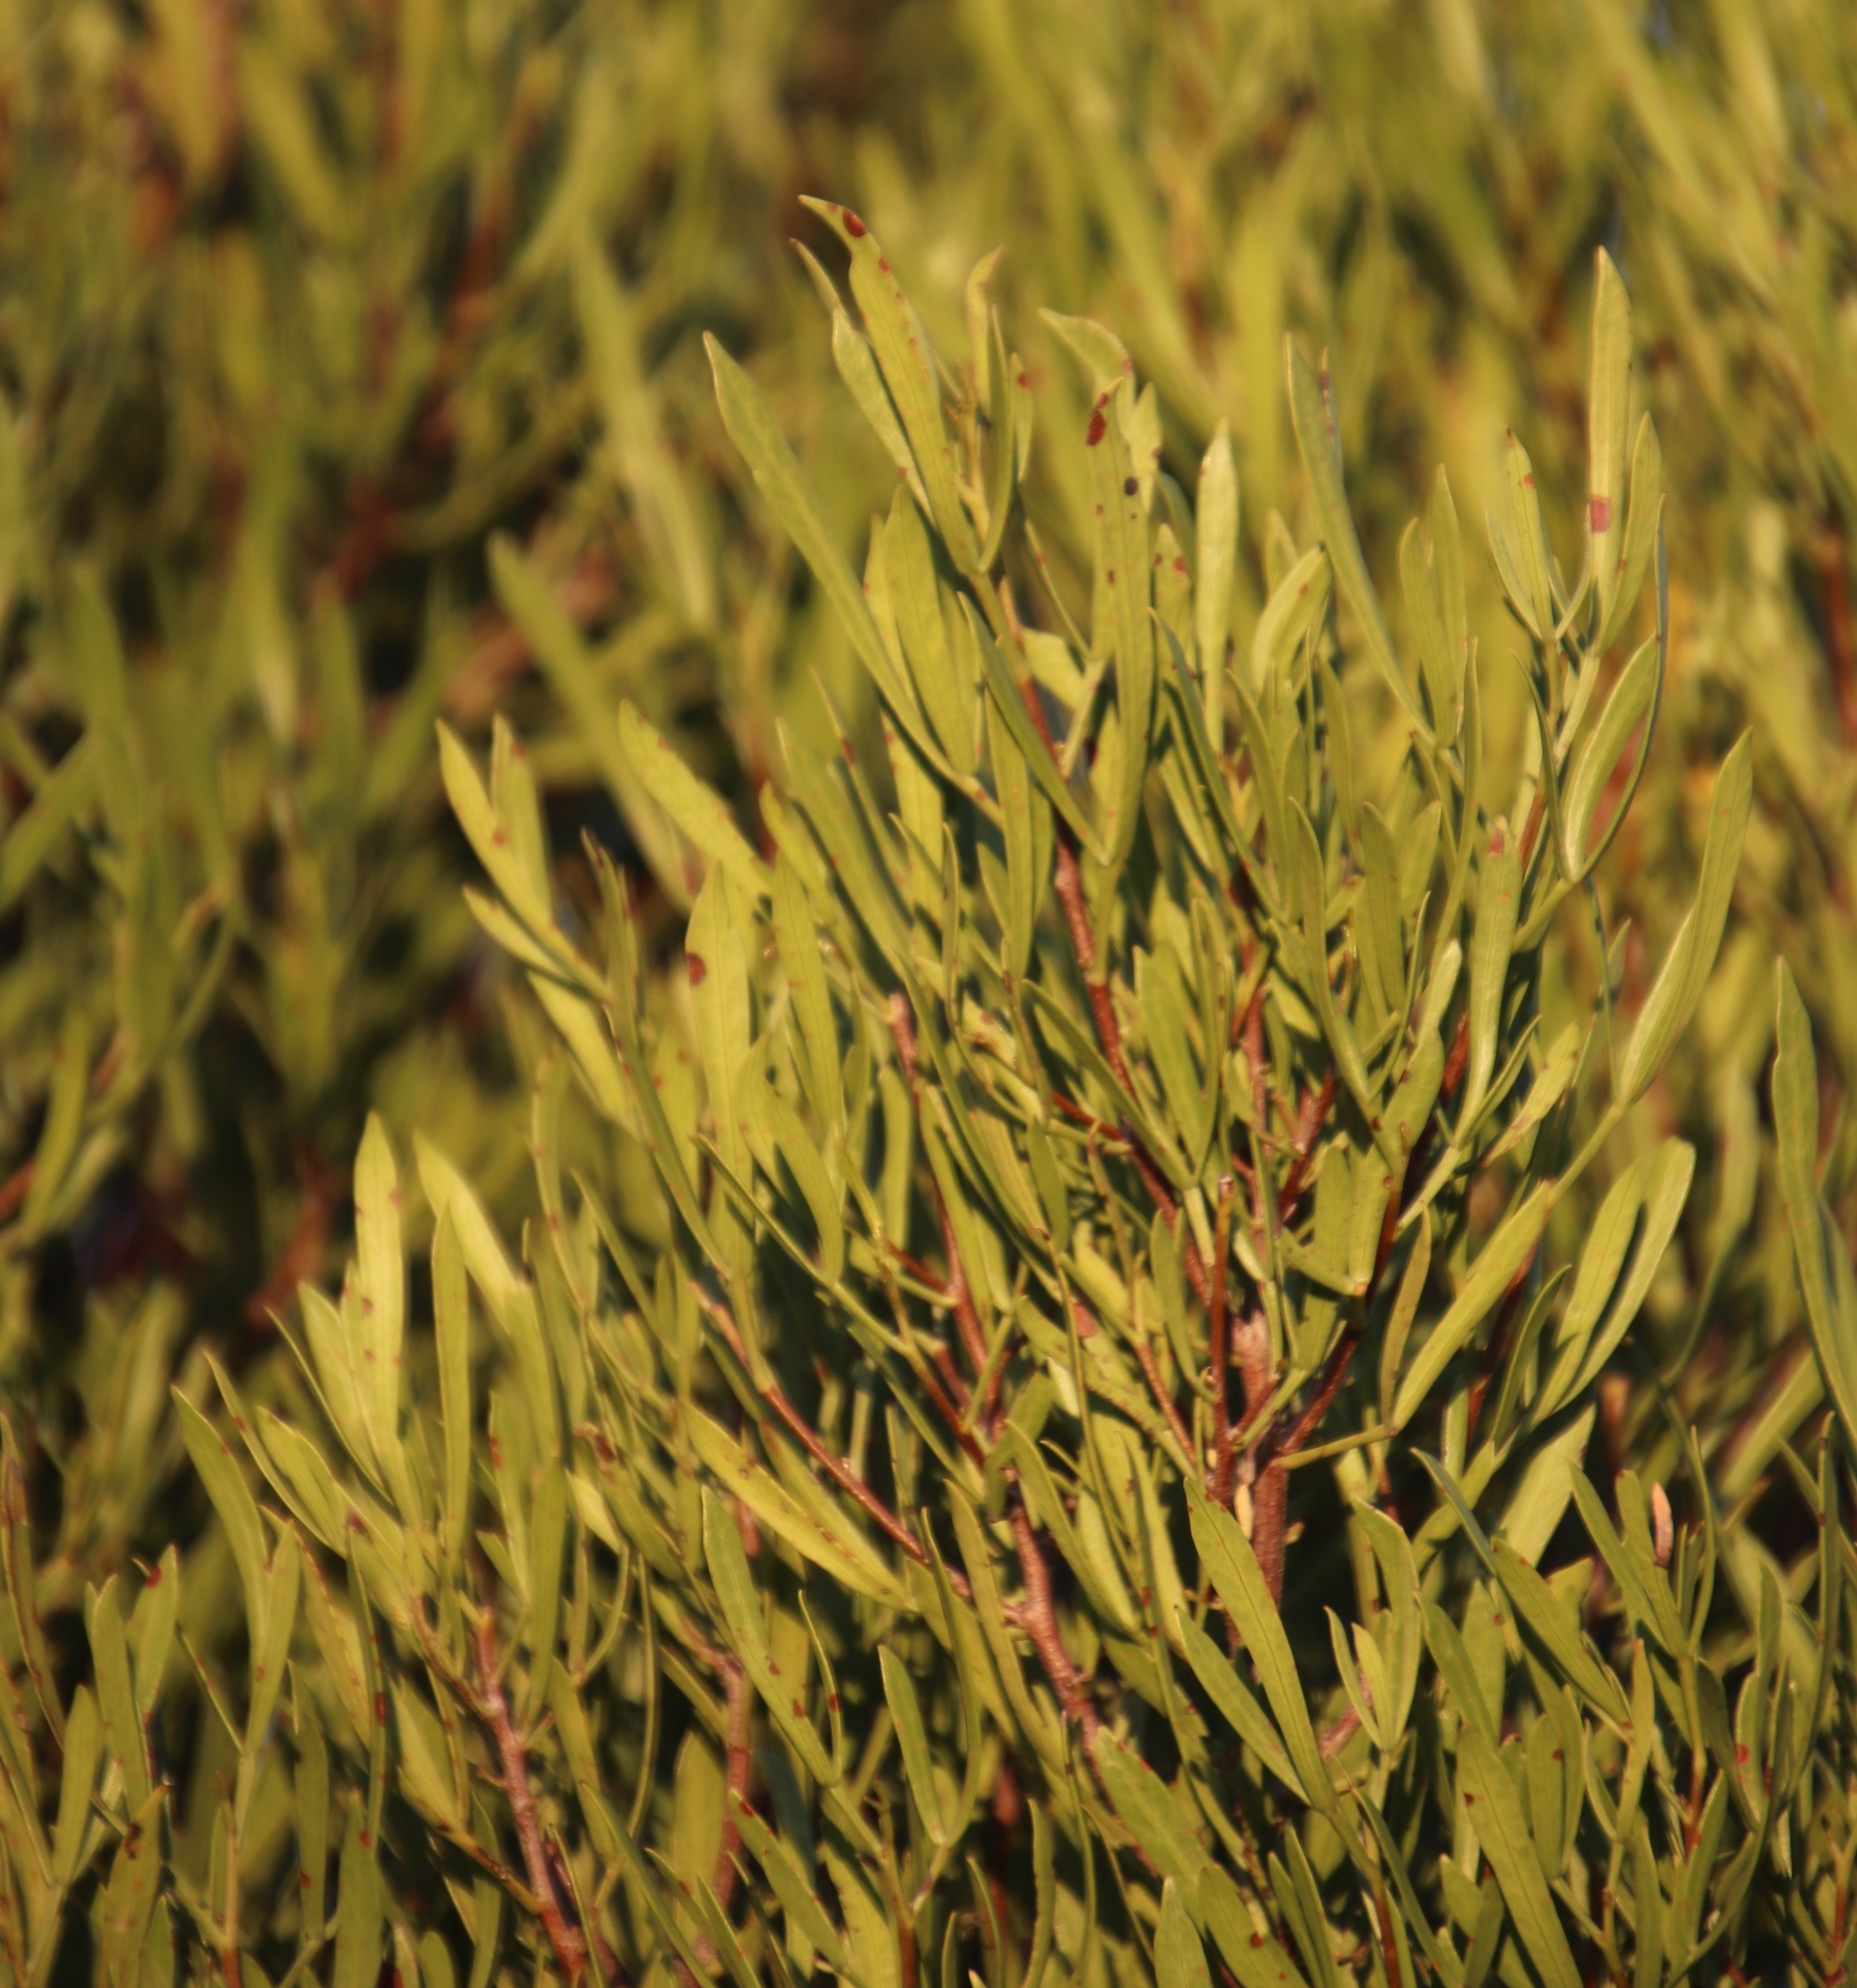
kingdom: Plantae
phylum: Tracheophyta
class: Magnoliopsida
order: Sapindales
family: Anacardiaceae
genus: Searsia
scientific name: Searsia rimosa
